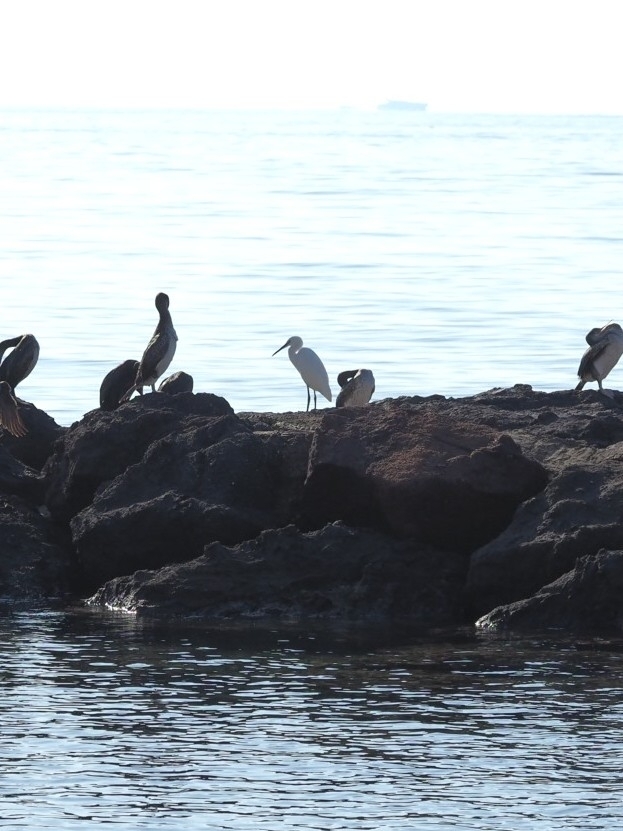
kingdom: Animalia
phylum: Chordata
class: Aves
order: Pelecaniformes
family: Ardeidae
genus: Egretta
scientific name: Egretta garzetta
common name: Little egret
